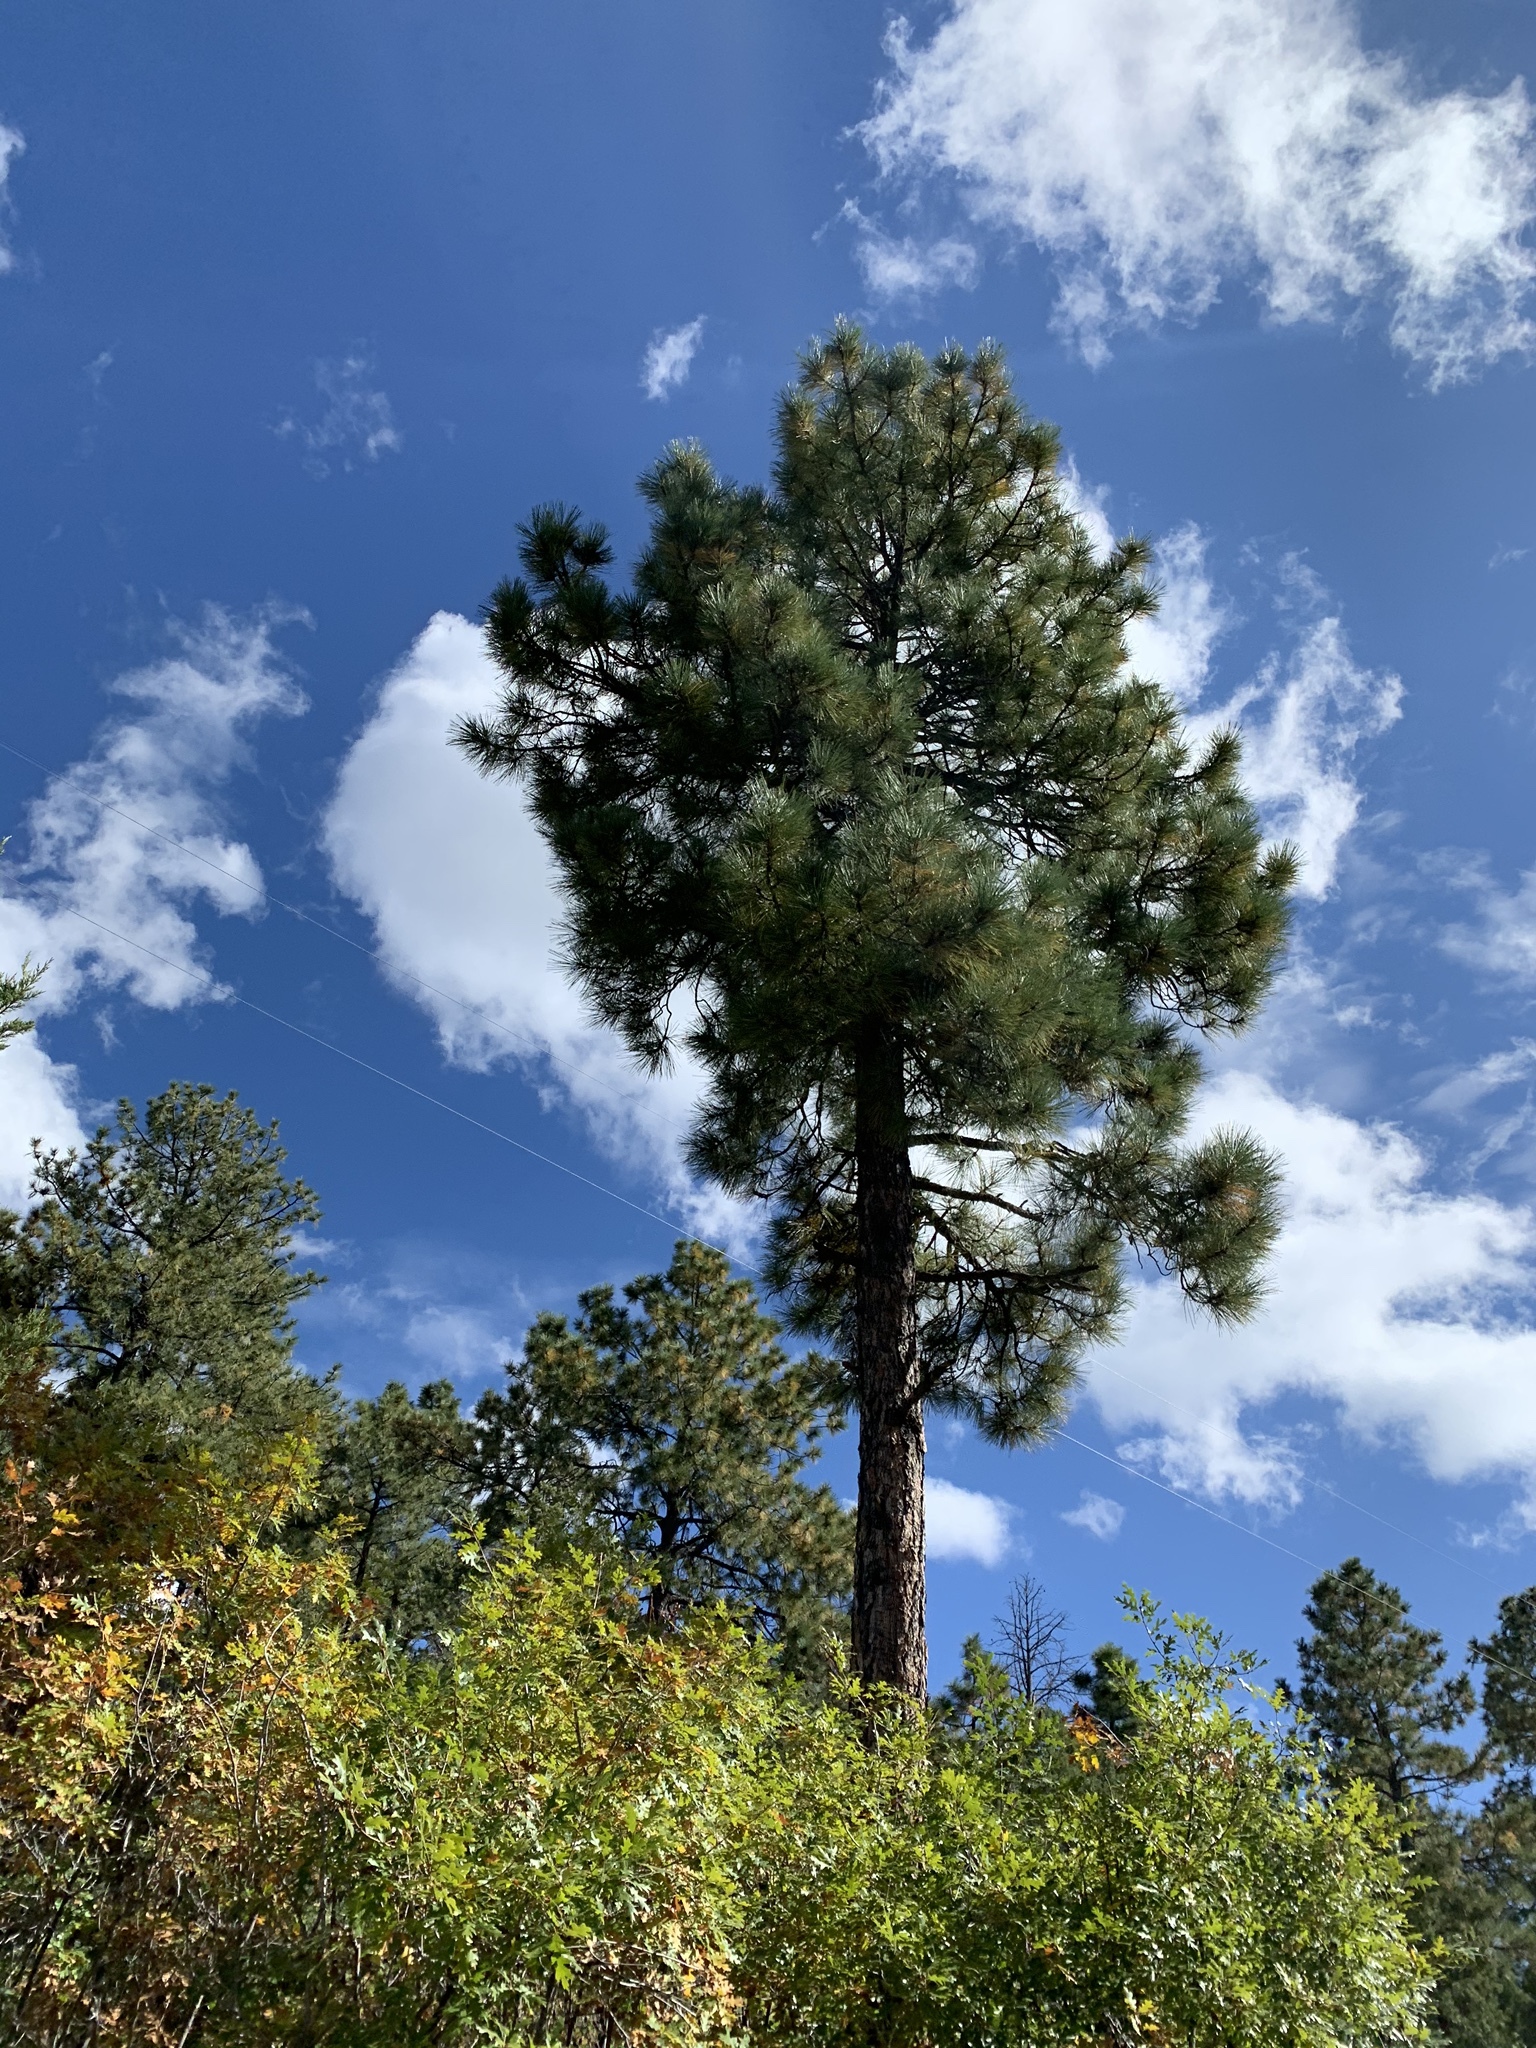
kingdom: Plantae
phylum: Tracheophyta
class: Pinopsida
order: Pinales
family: Pinaceae
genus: Pinus
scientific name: Pinus ponderosa
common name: Western yellow-pine
